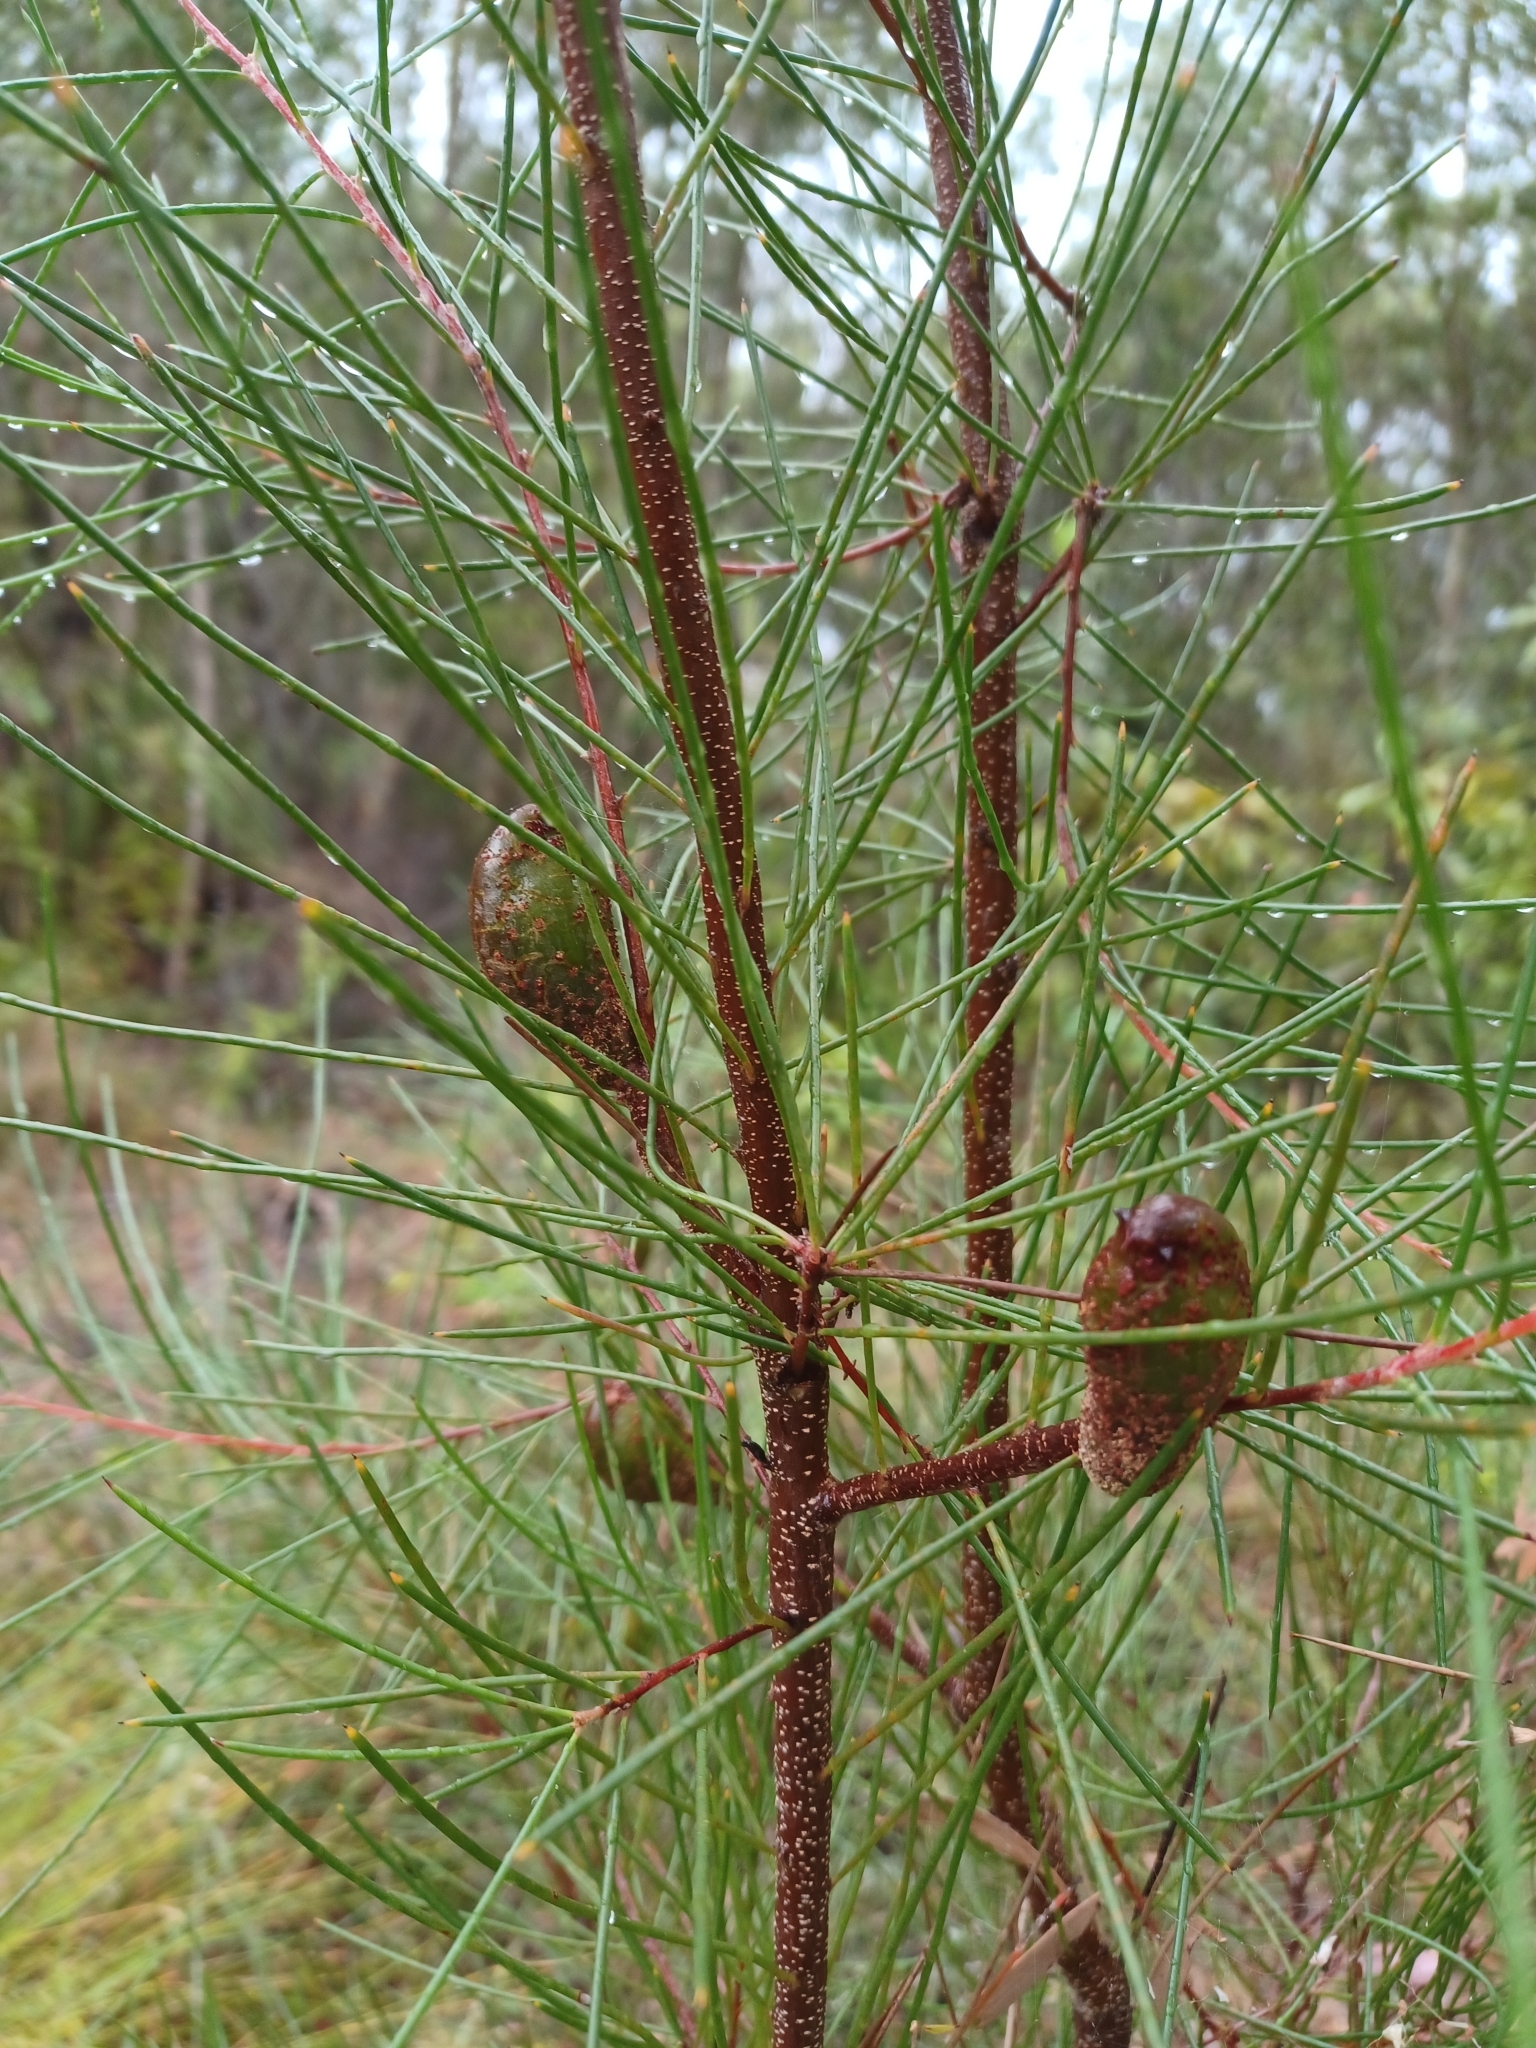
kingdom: Plantae
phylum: Tracheophyta
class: Magnoliopsida
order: Proteales
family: Proteaceae
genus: Hakea
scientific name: Hakea actites
